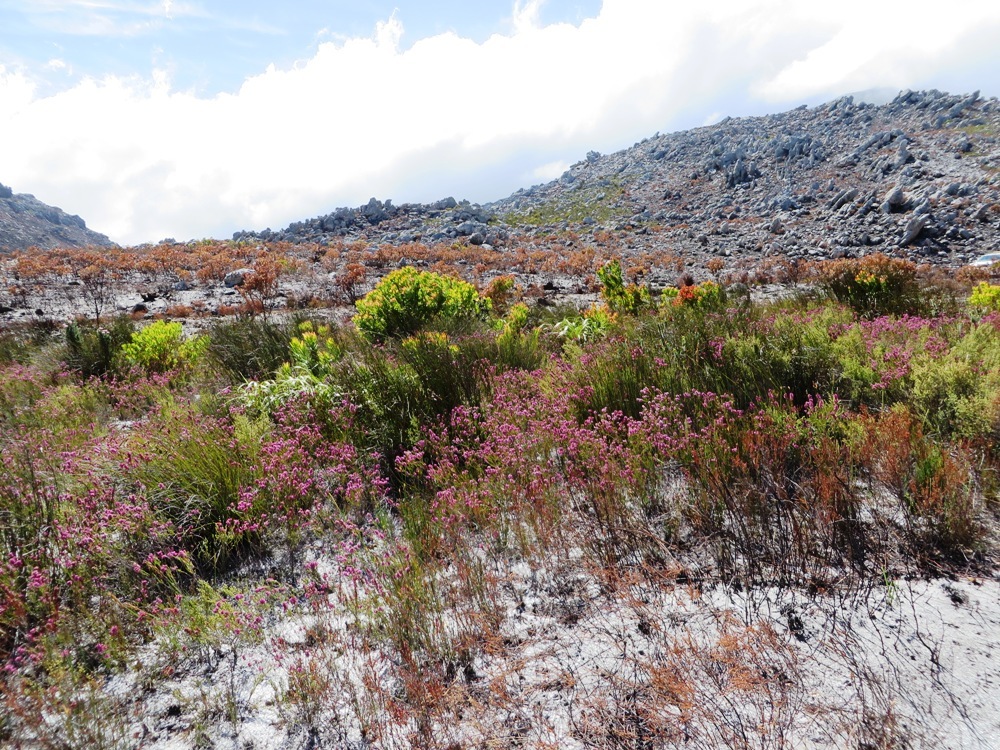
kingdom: Plantae
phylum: Tracheophyta
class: Magnoliopsida
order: Ericales
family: Ericaceae
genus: Erica
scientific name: Erica pulchella
